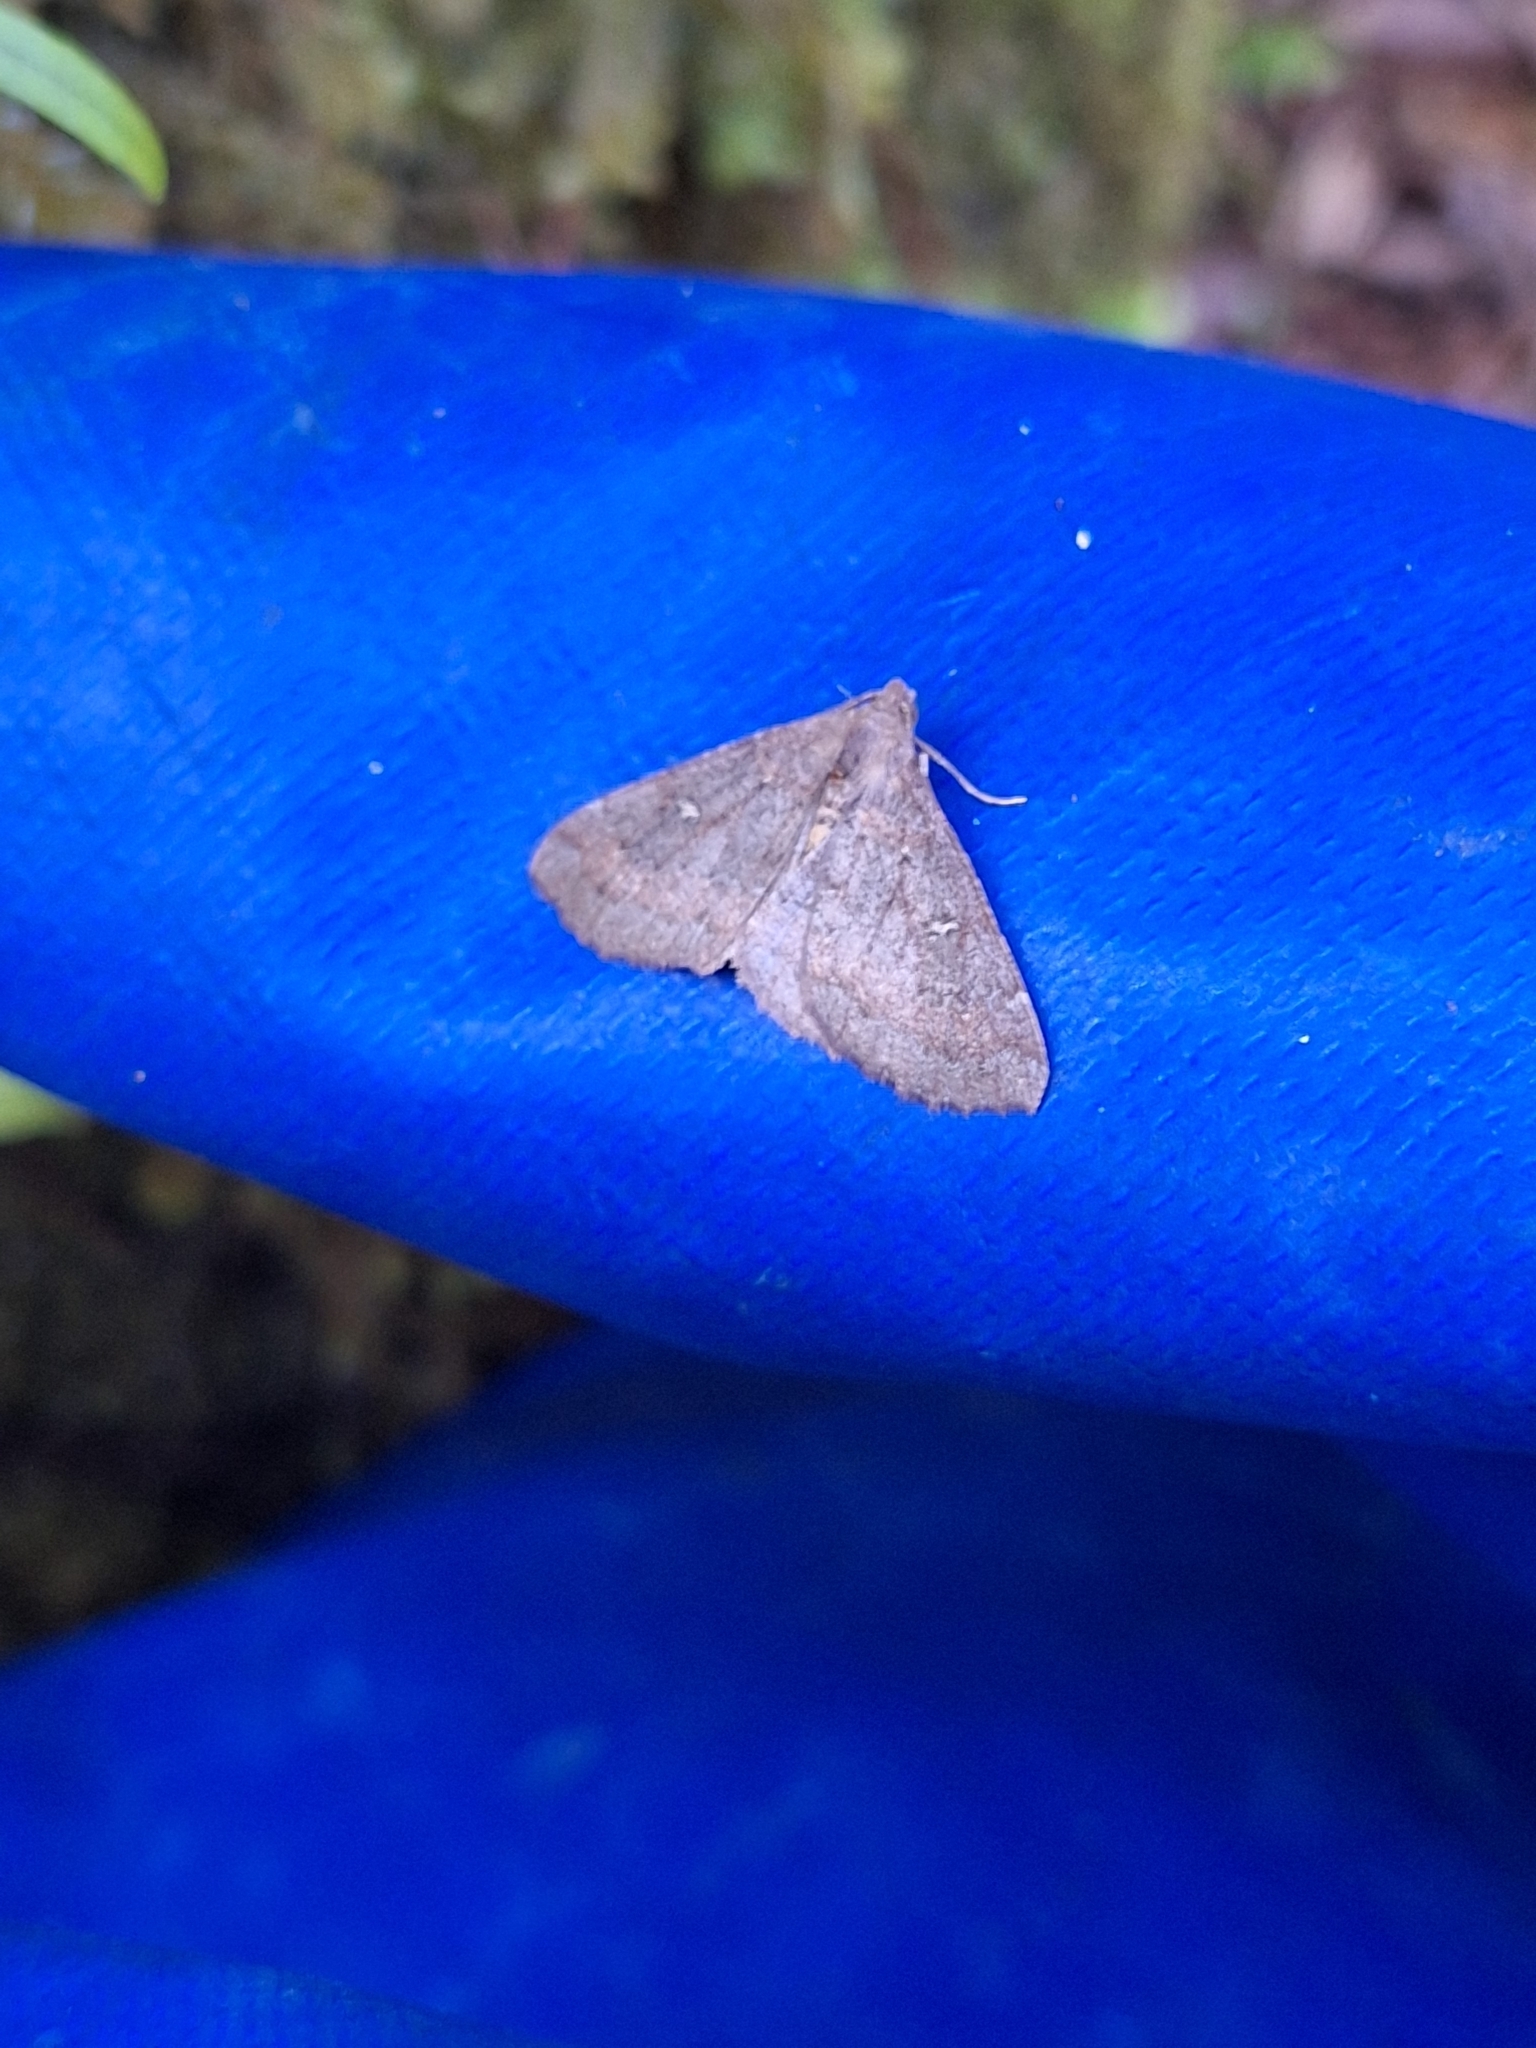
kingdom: Animalia
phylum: Arthropoda
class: Insecta
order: Lepidoptera
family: Geometridae
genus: Cleora
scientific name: Cleora scriptaria
